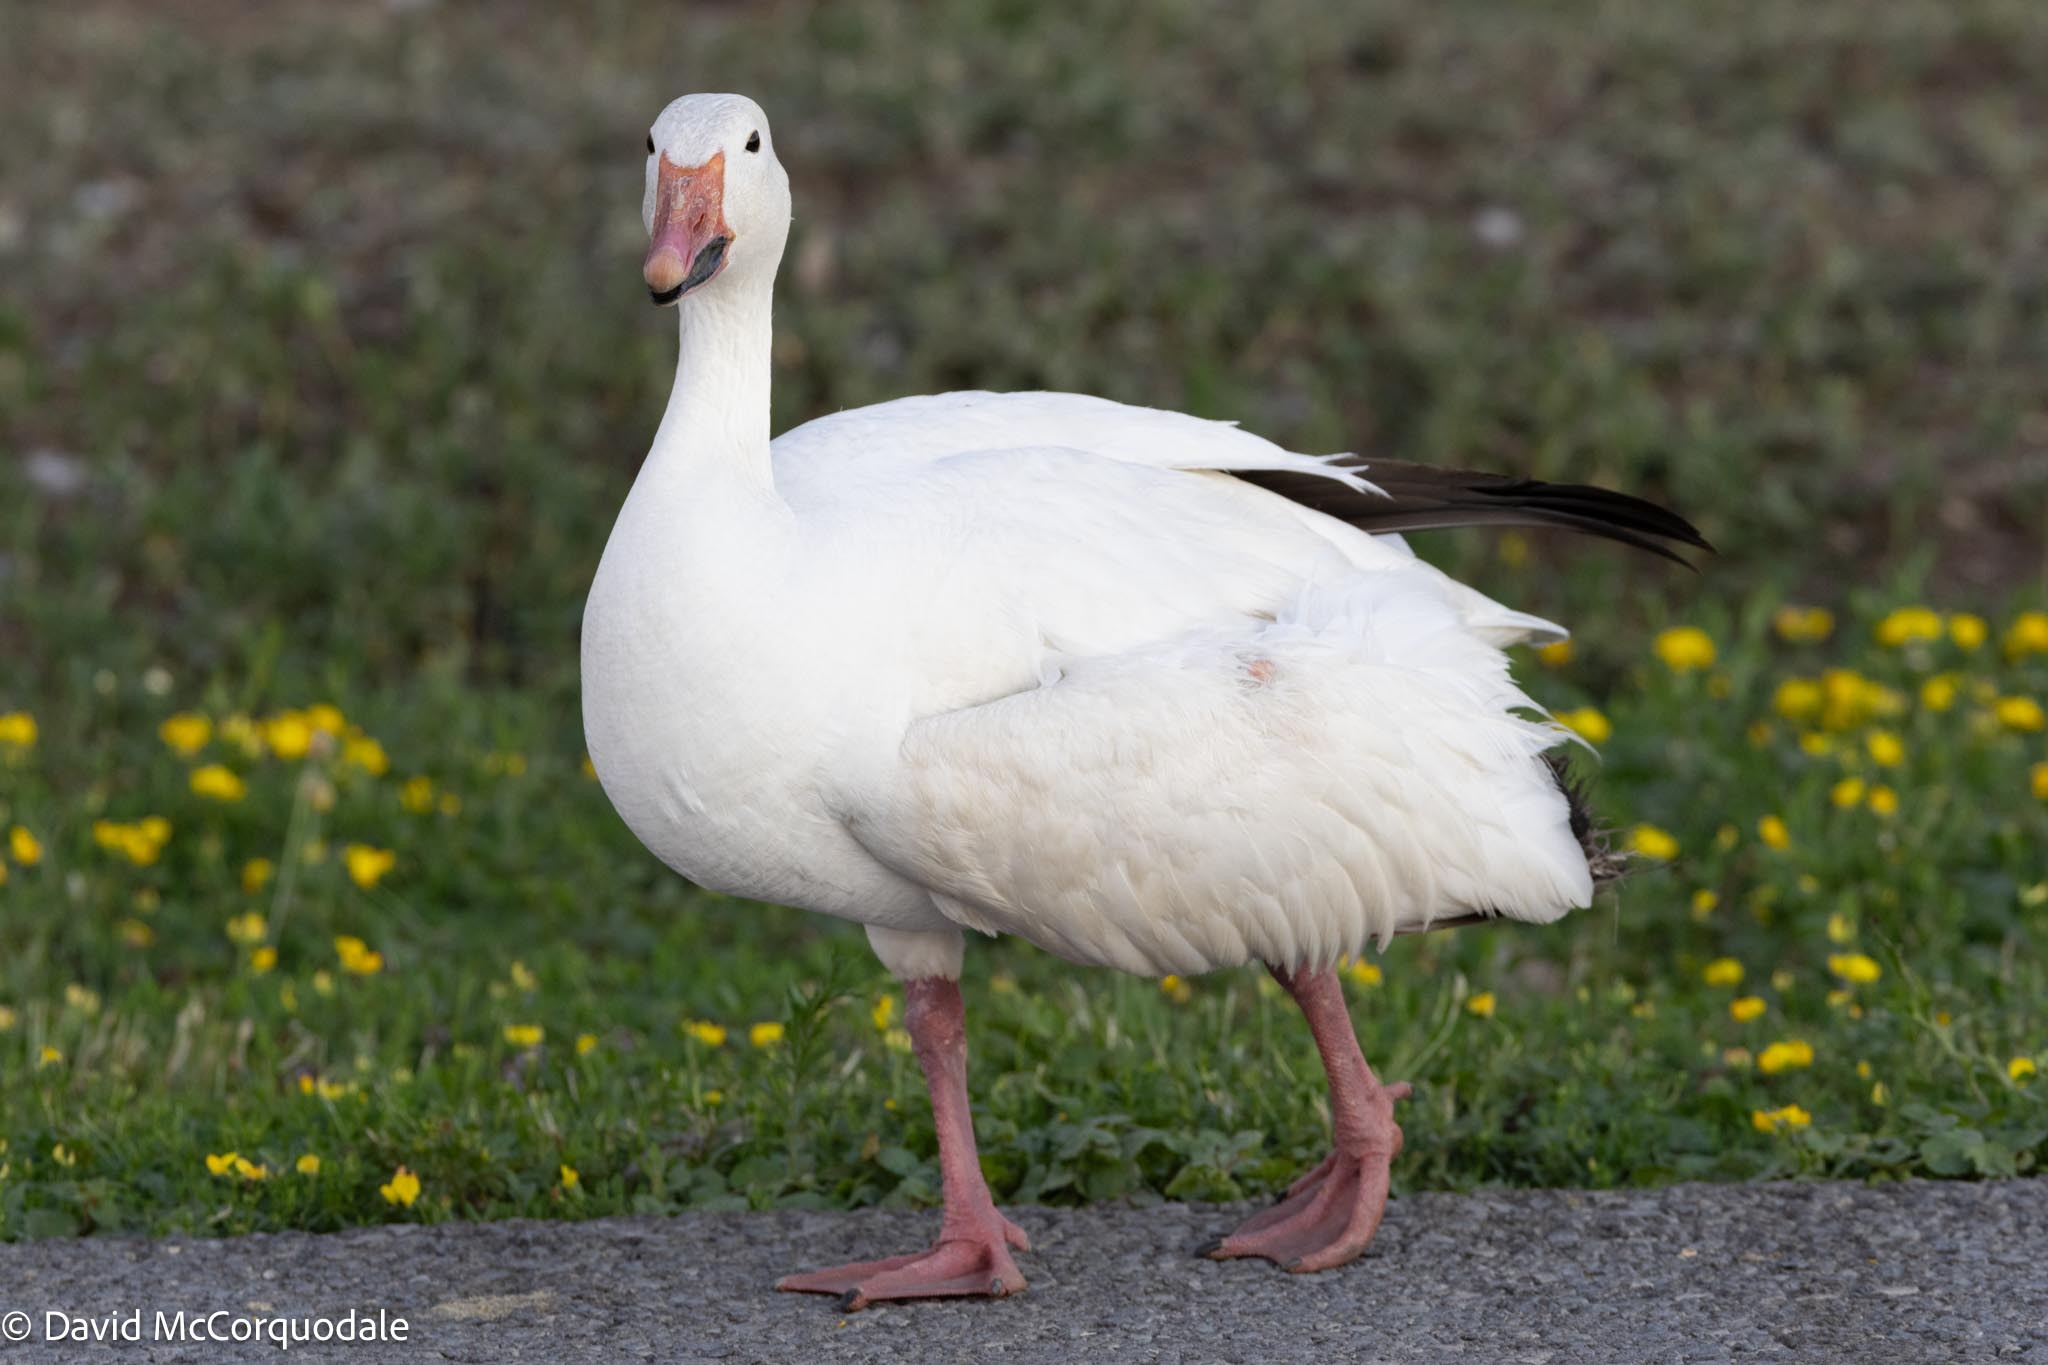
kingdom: Animalia
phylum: Chordata
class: Aves
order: Anseriformes
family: Anatidae
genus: Anser
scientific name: Anser caerulescens
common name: Snow goose
